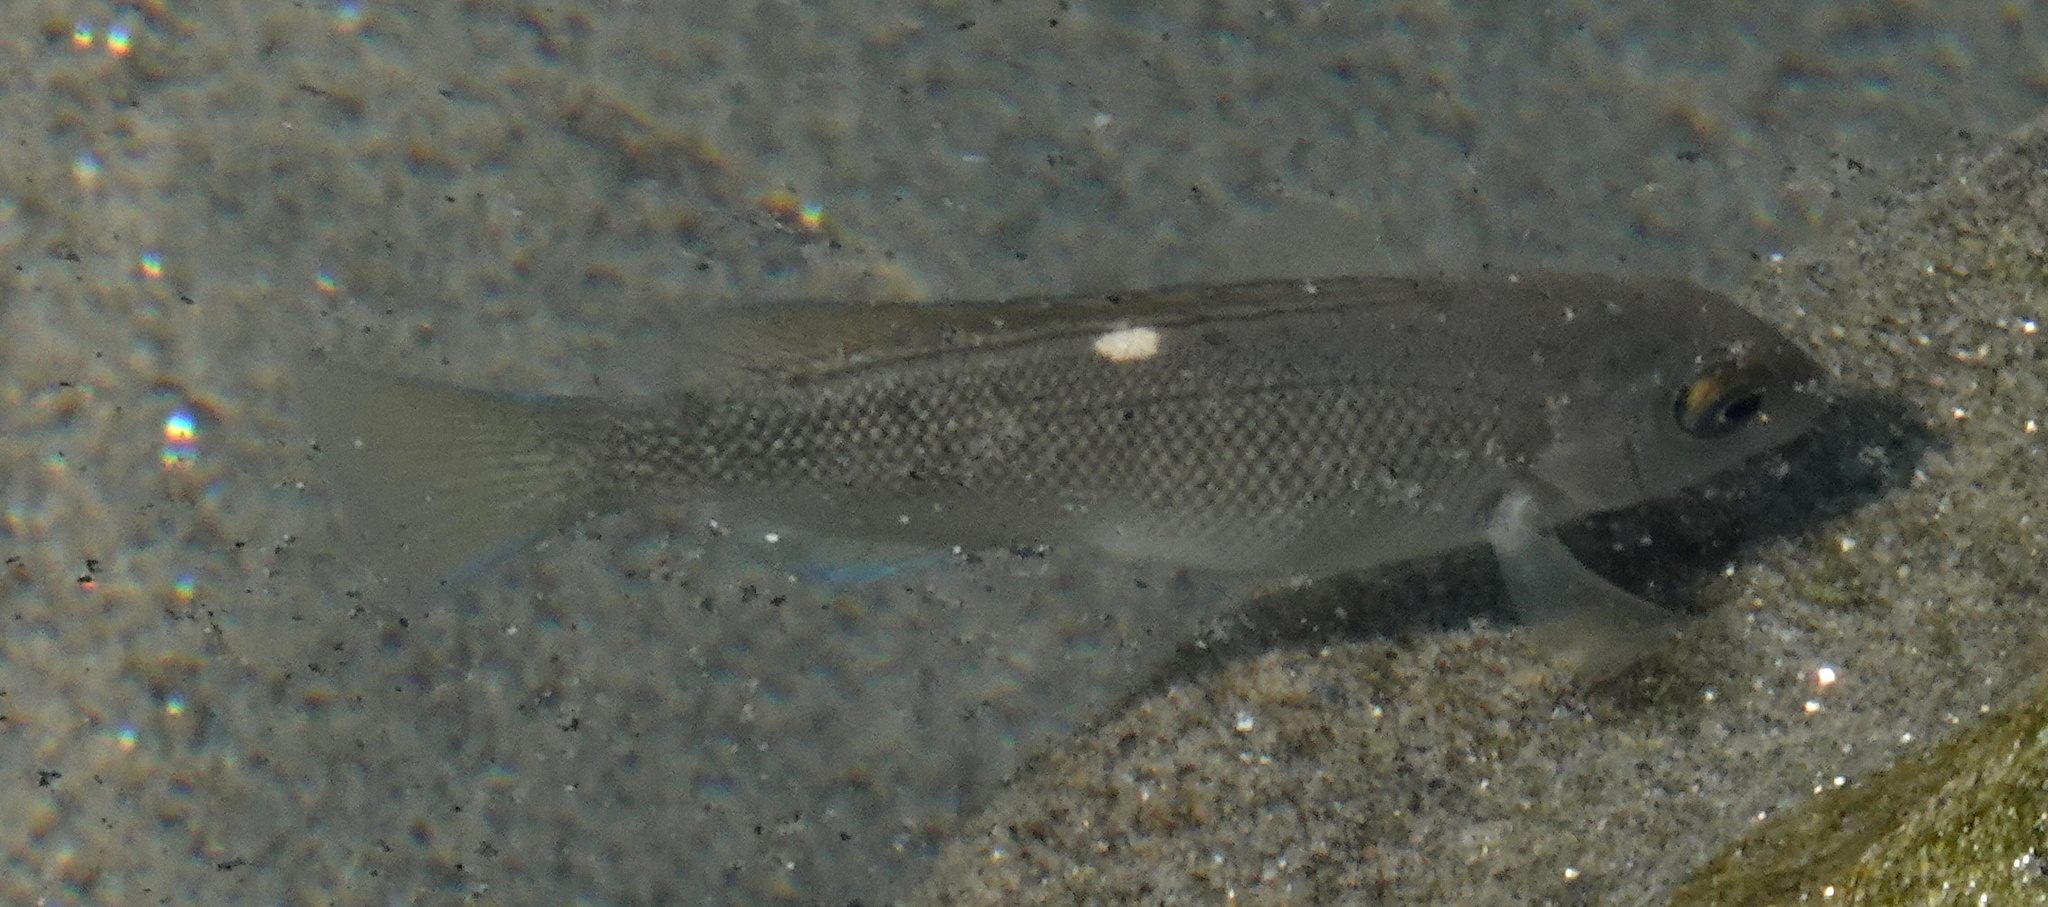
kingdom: Animalia
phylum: Chordata
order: Perciformes
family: Kyphosidae
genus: Girella
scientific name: Girella nigricans
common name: Opaleye
